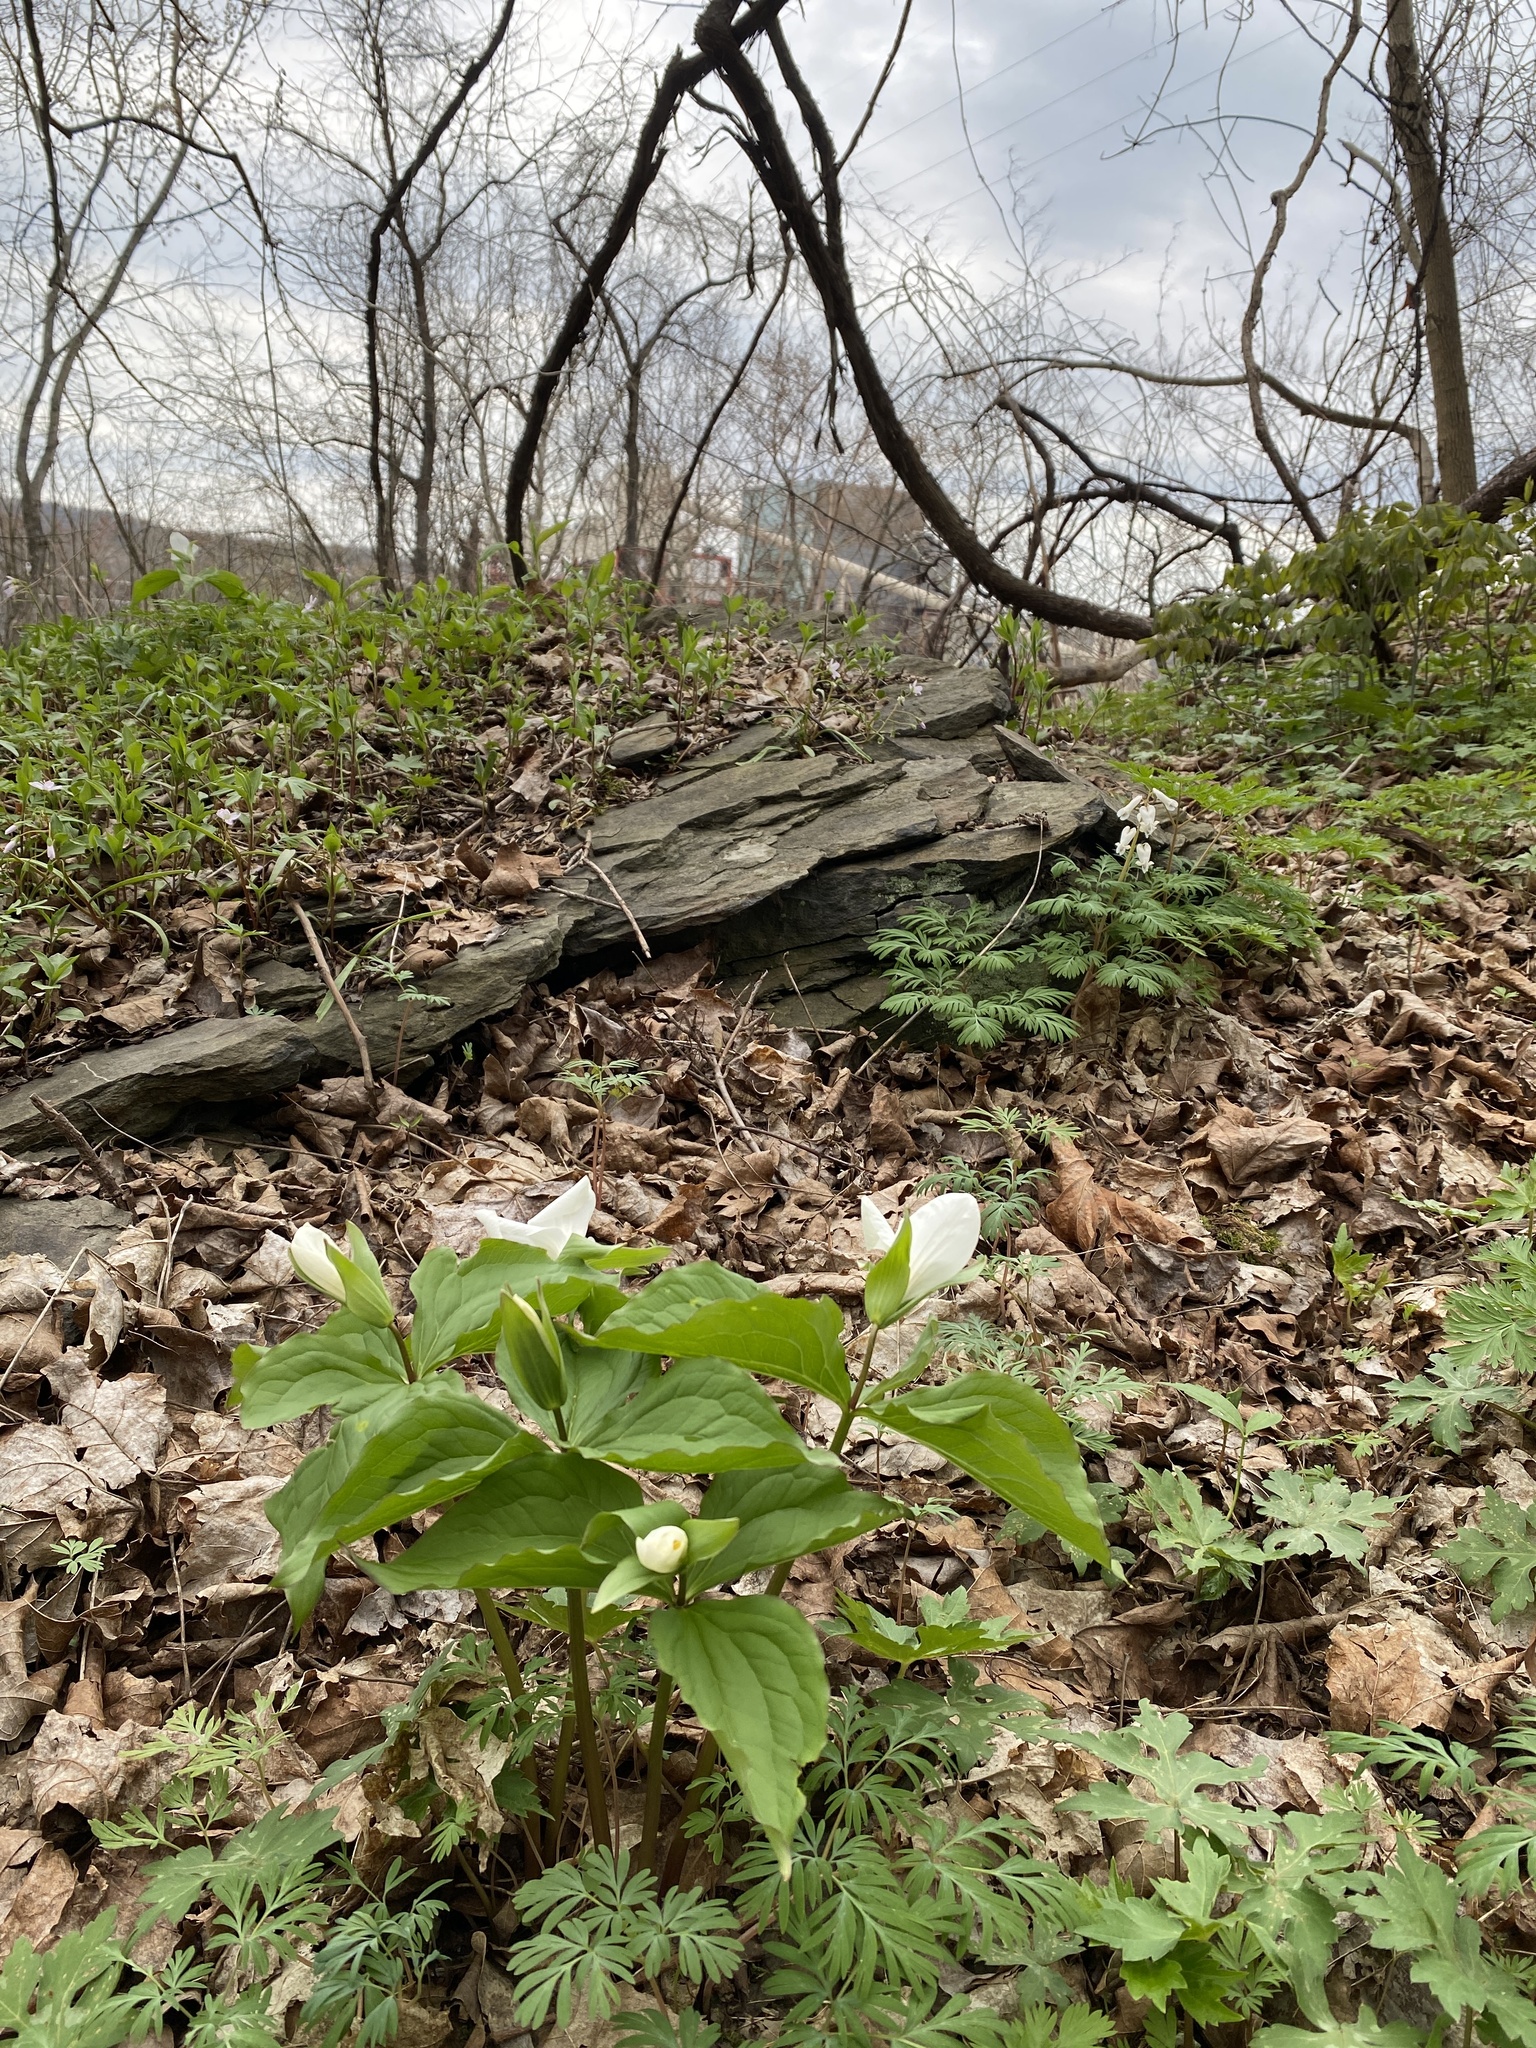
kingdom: Plantae
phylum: Tracheophyta
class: Liliopsida
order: Liliales
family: Melanthiaceae
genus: Trillium
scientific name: Trillium grandiflorum
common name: Great white trillium
